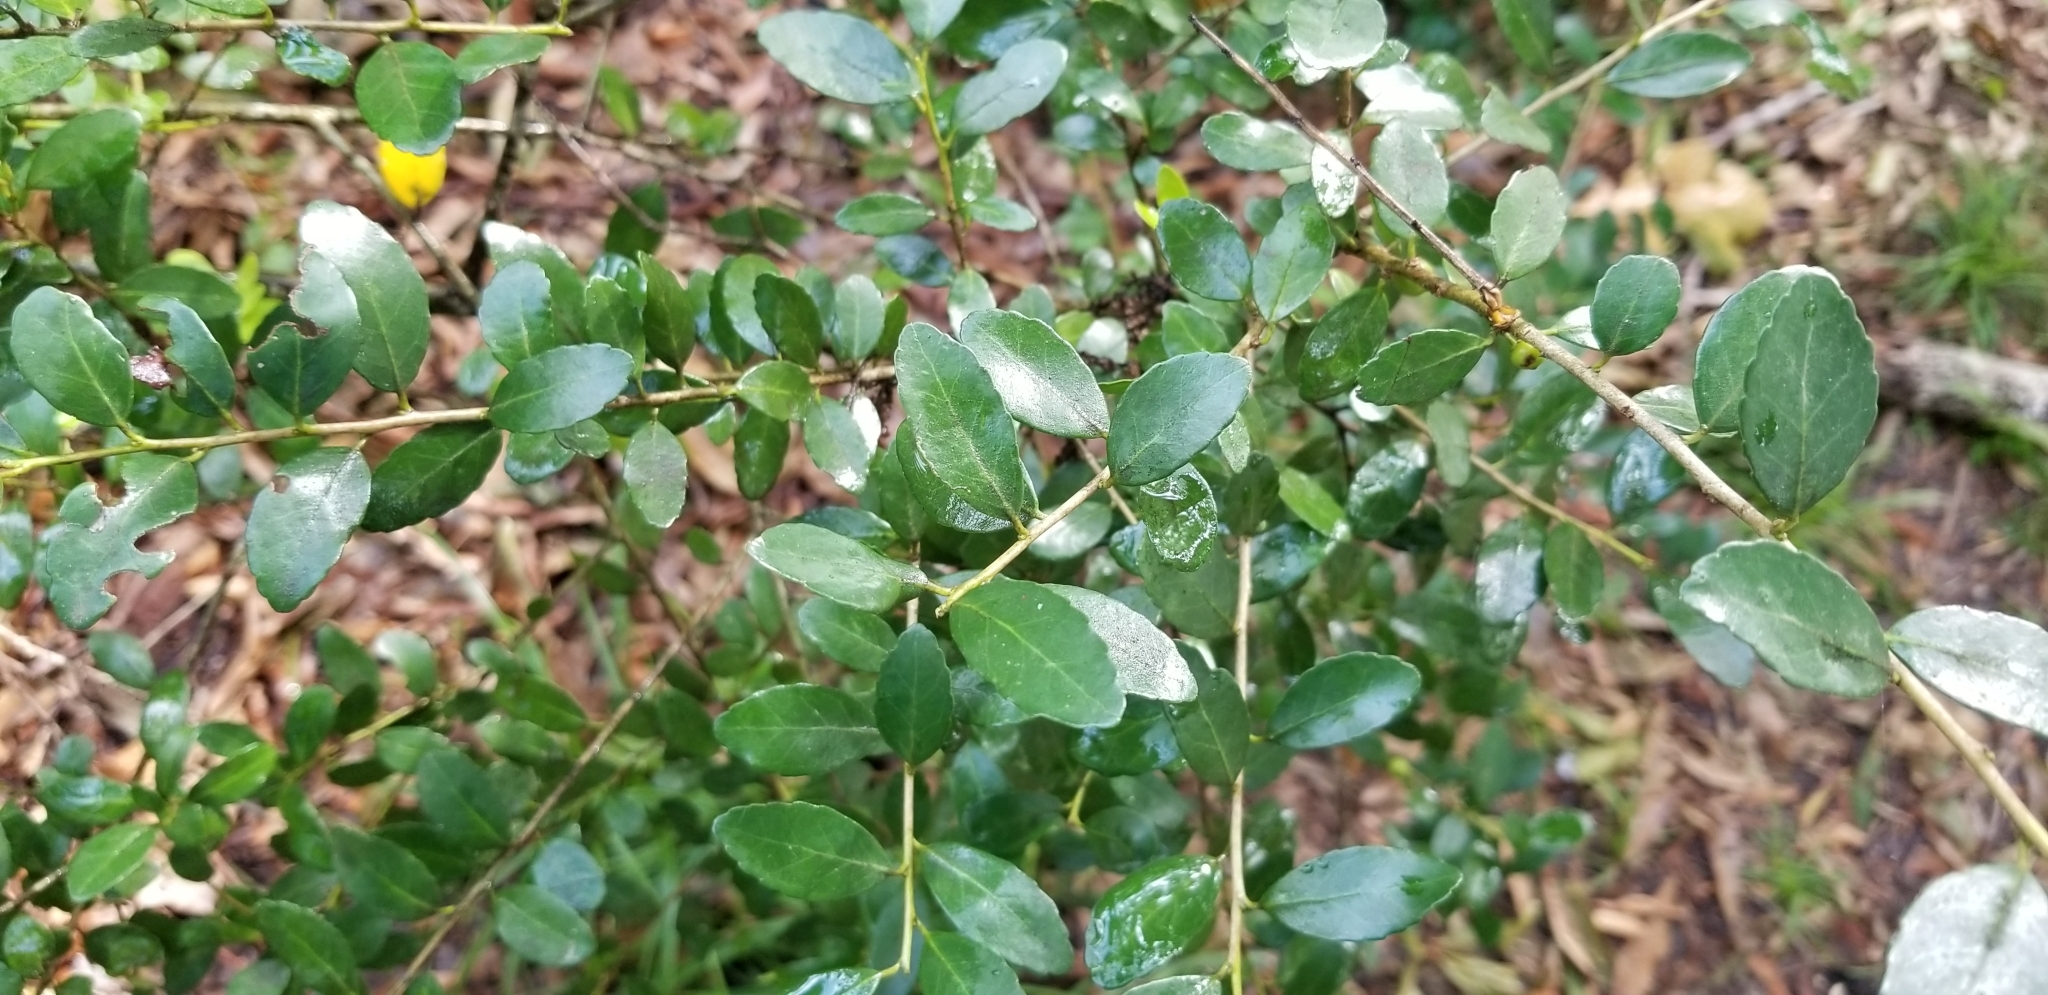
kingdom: Plantae
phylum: Tracheophyta
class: Magnoliopsida
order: Aquifoliales
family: Aquifoliaceae
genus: Ilex
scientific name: Ilex vomitoria
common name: Yaupon holly
